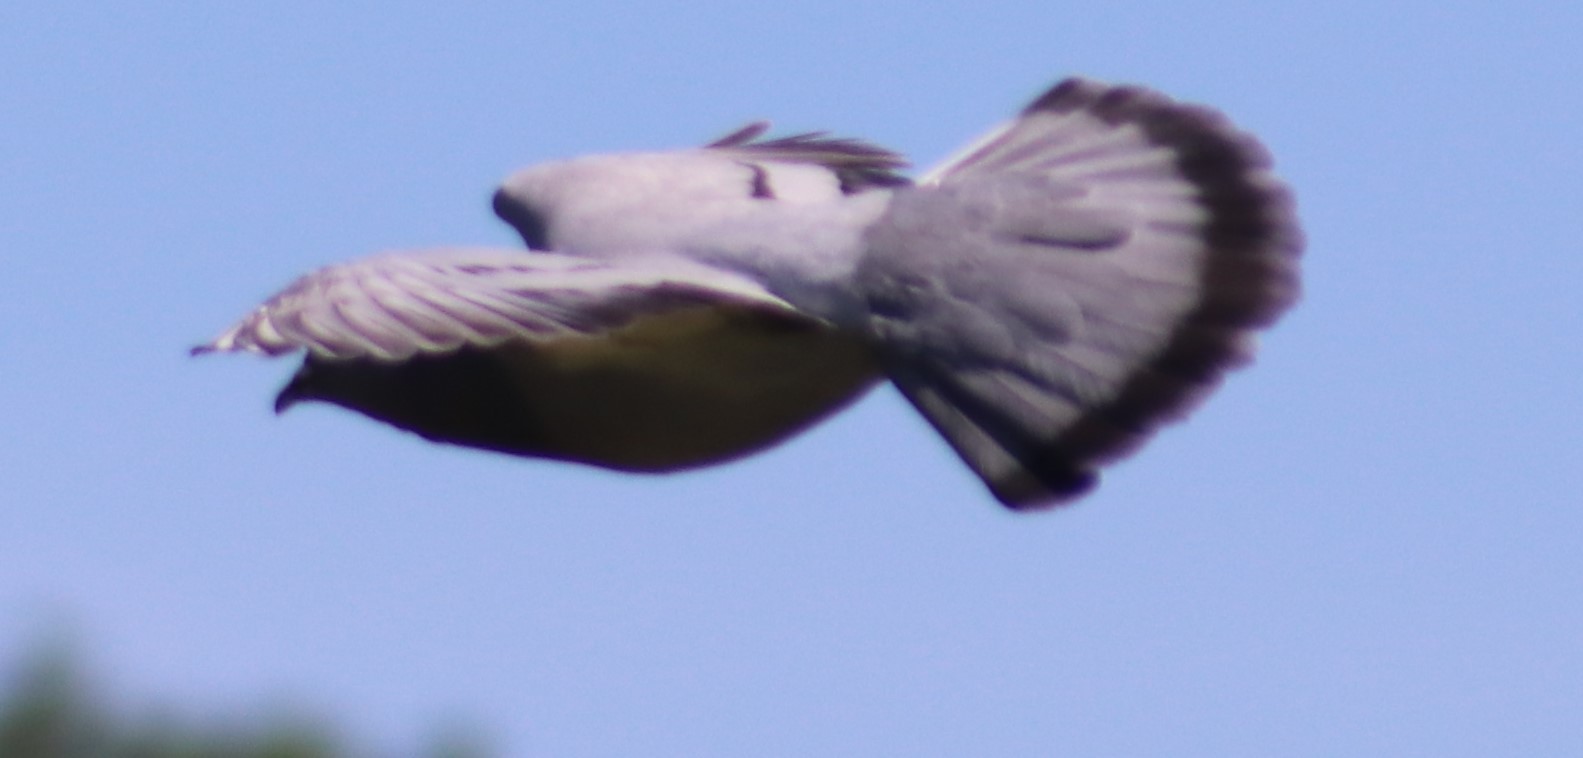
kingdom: Animalia
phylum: Chordata
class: Aves
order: Columbiformes
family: Columbidae
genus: Columba
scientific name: Columba livia
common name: Rock pigeon
